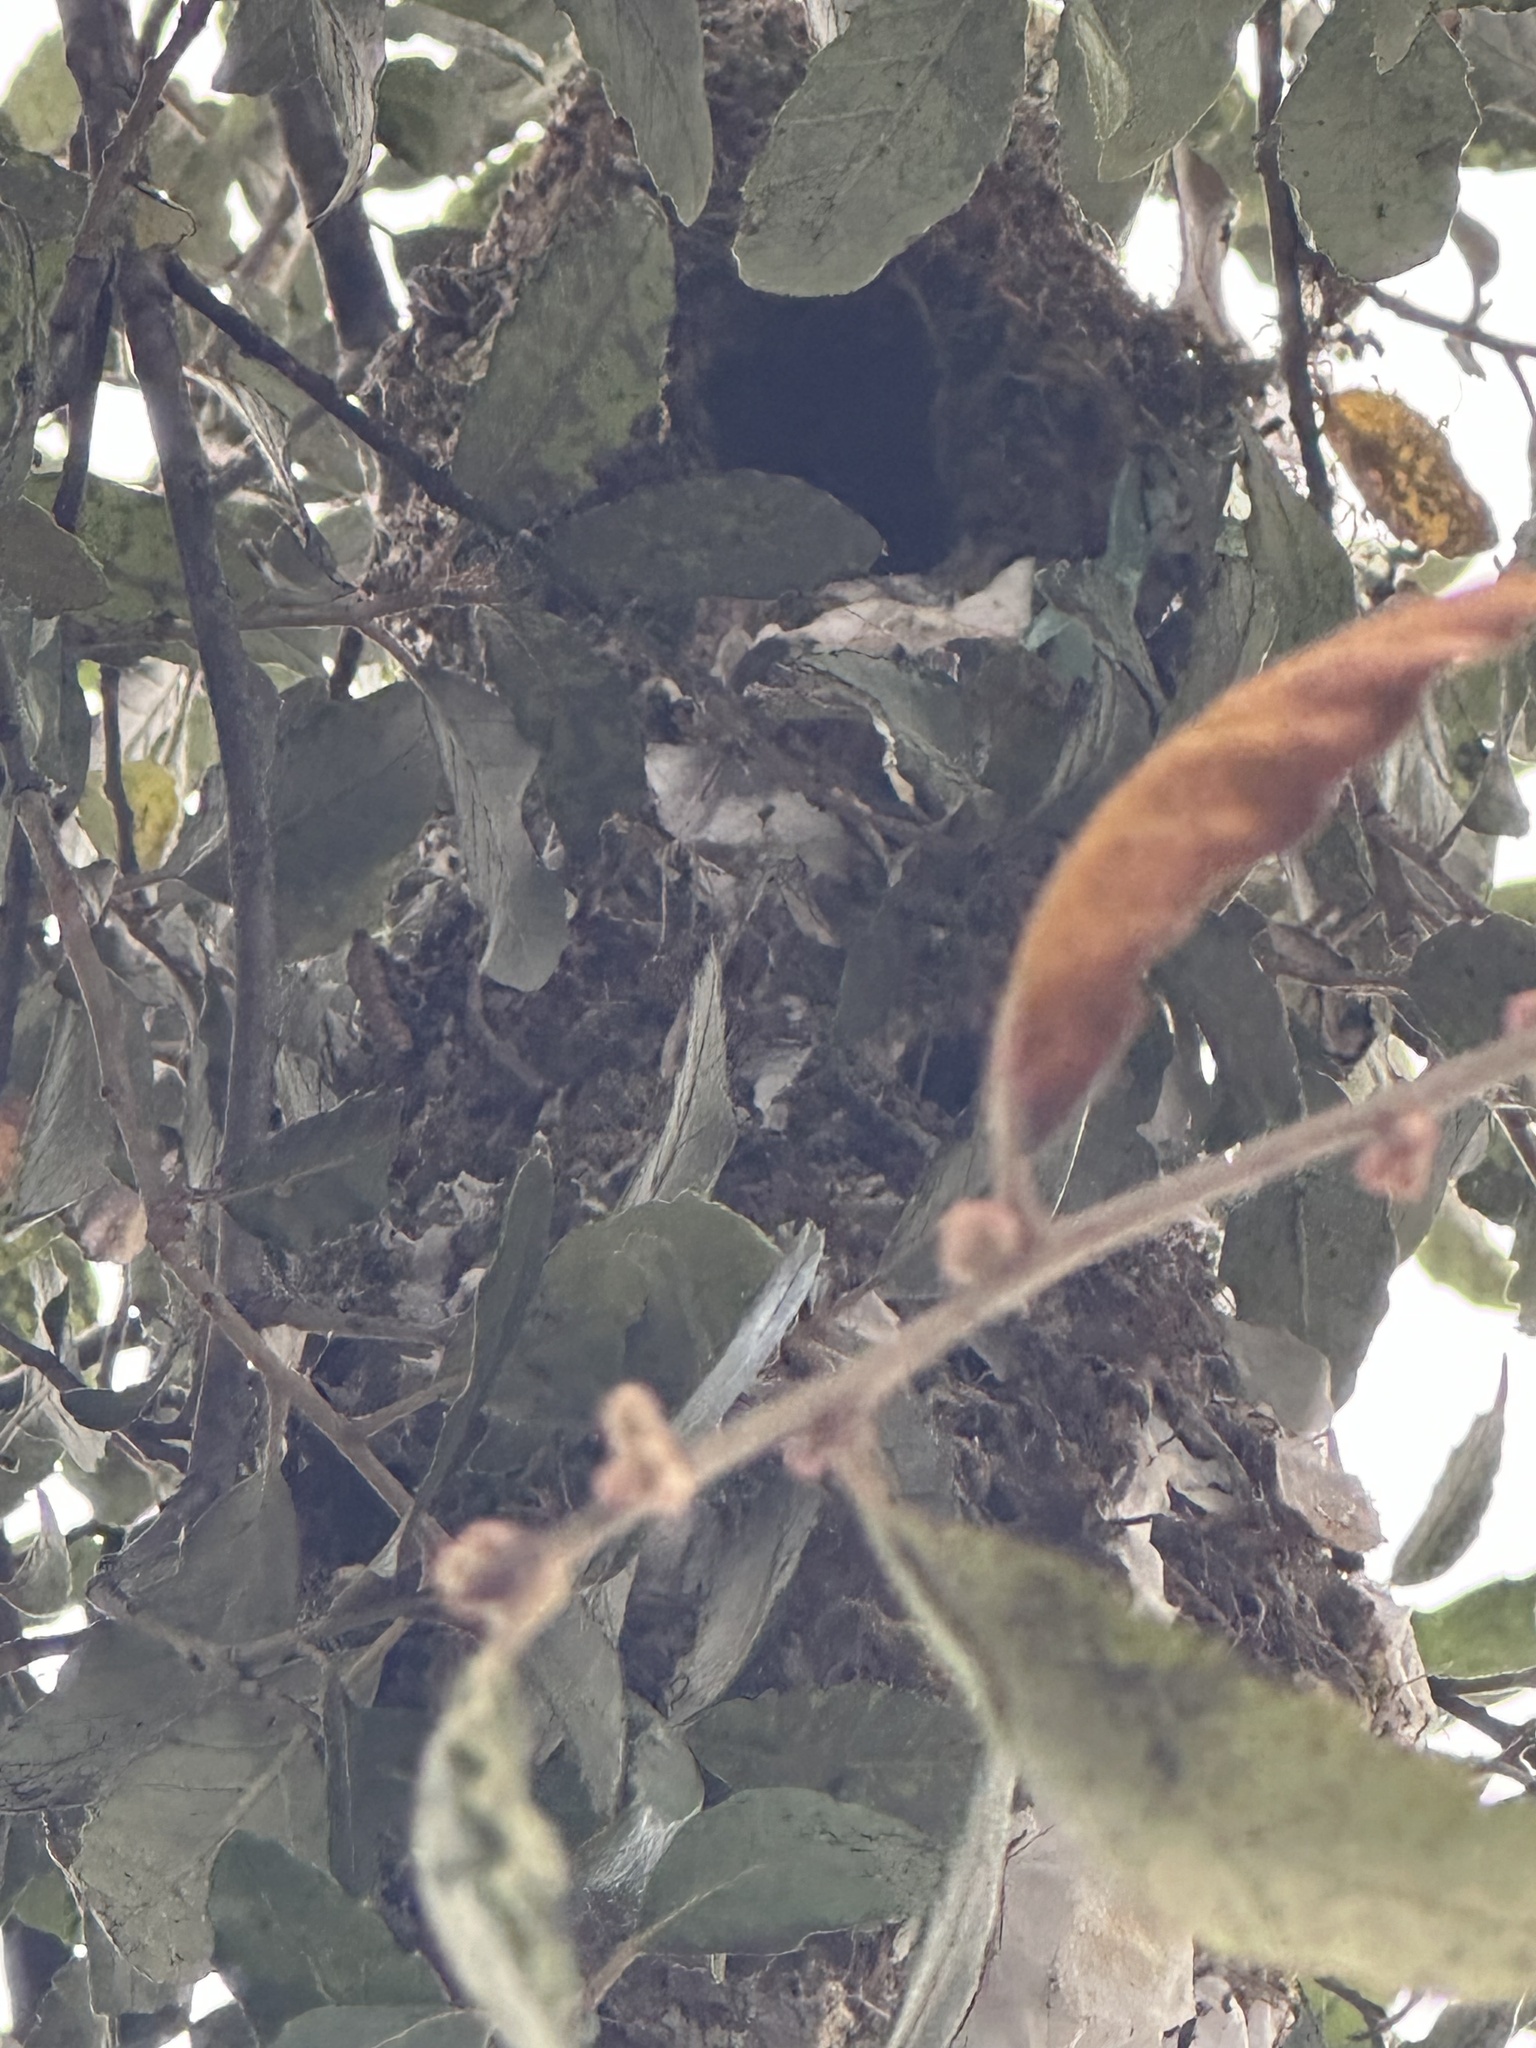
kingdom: Animalia
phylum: Chordata
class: Aves
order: Passeriformes
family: Aegithalidae
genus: Psaltriparus
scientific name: Psaltriparus minimus
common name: American bushtit
